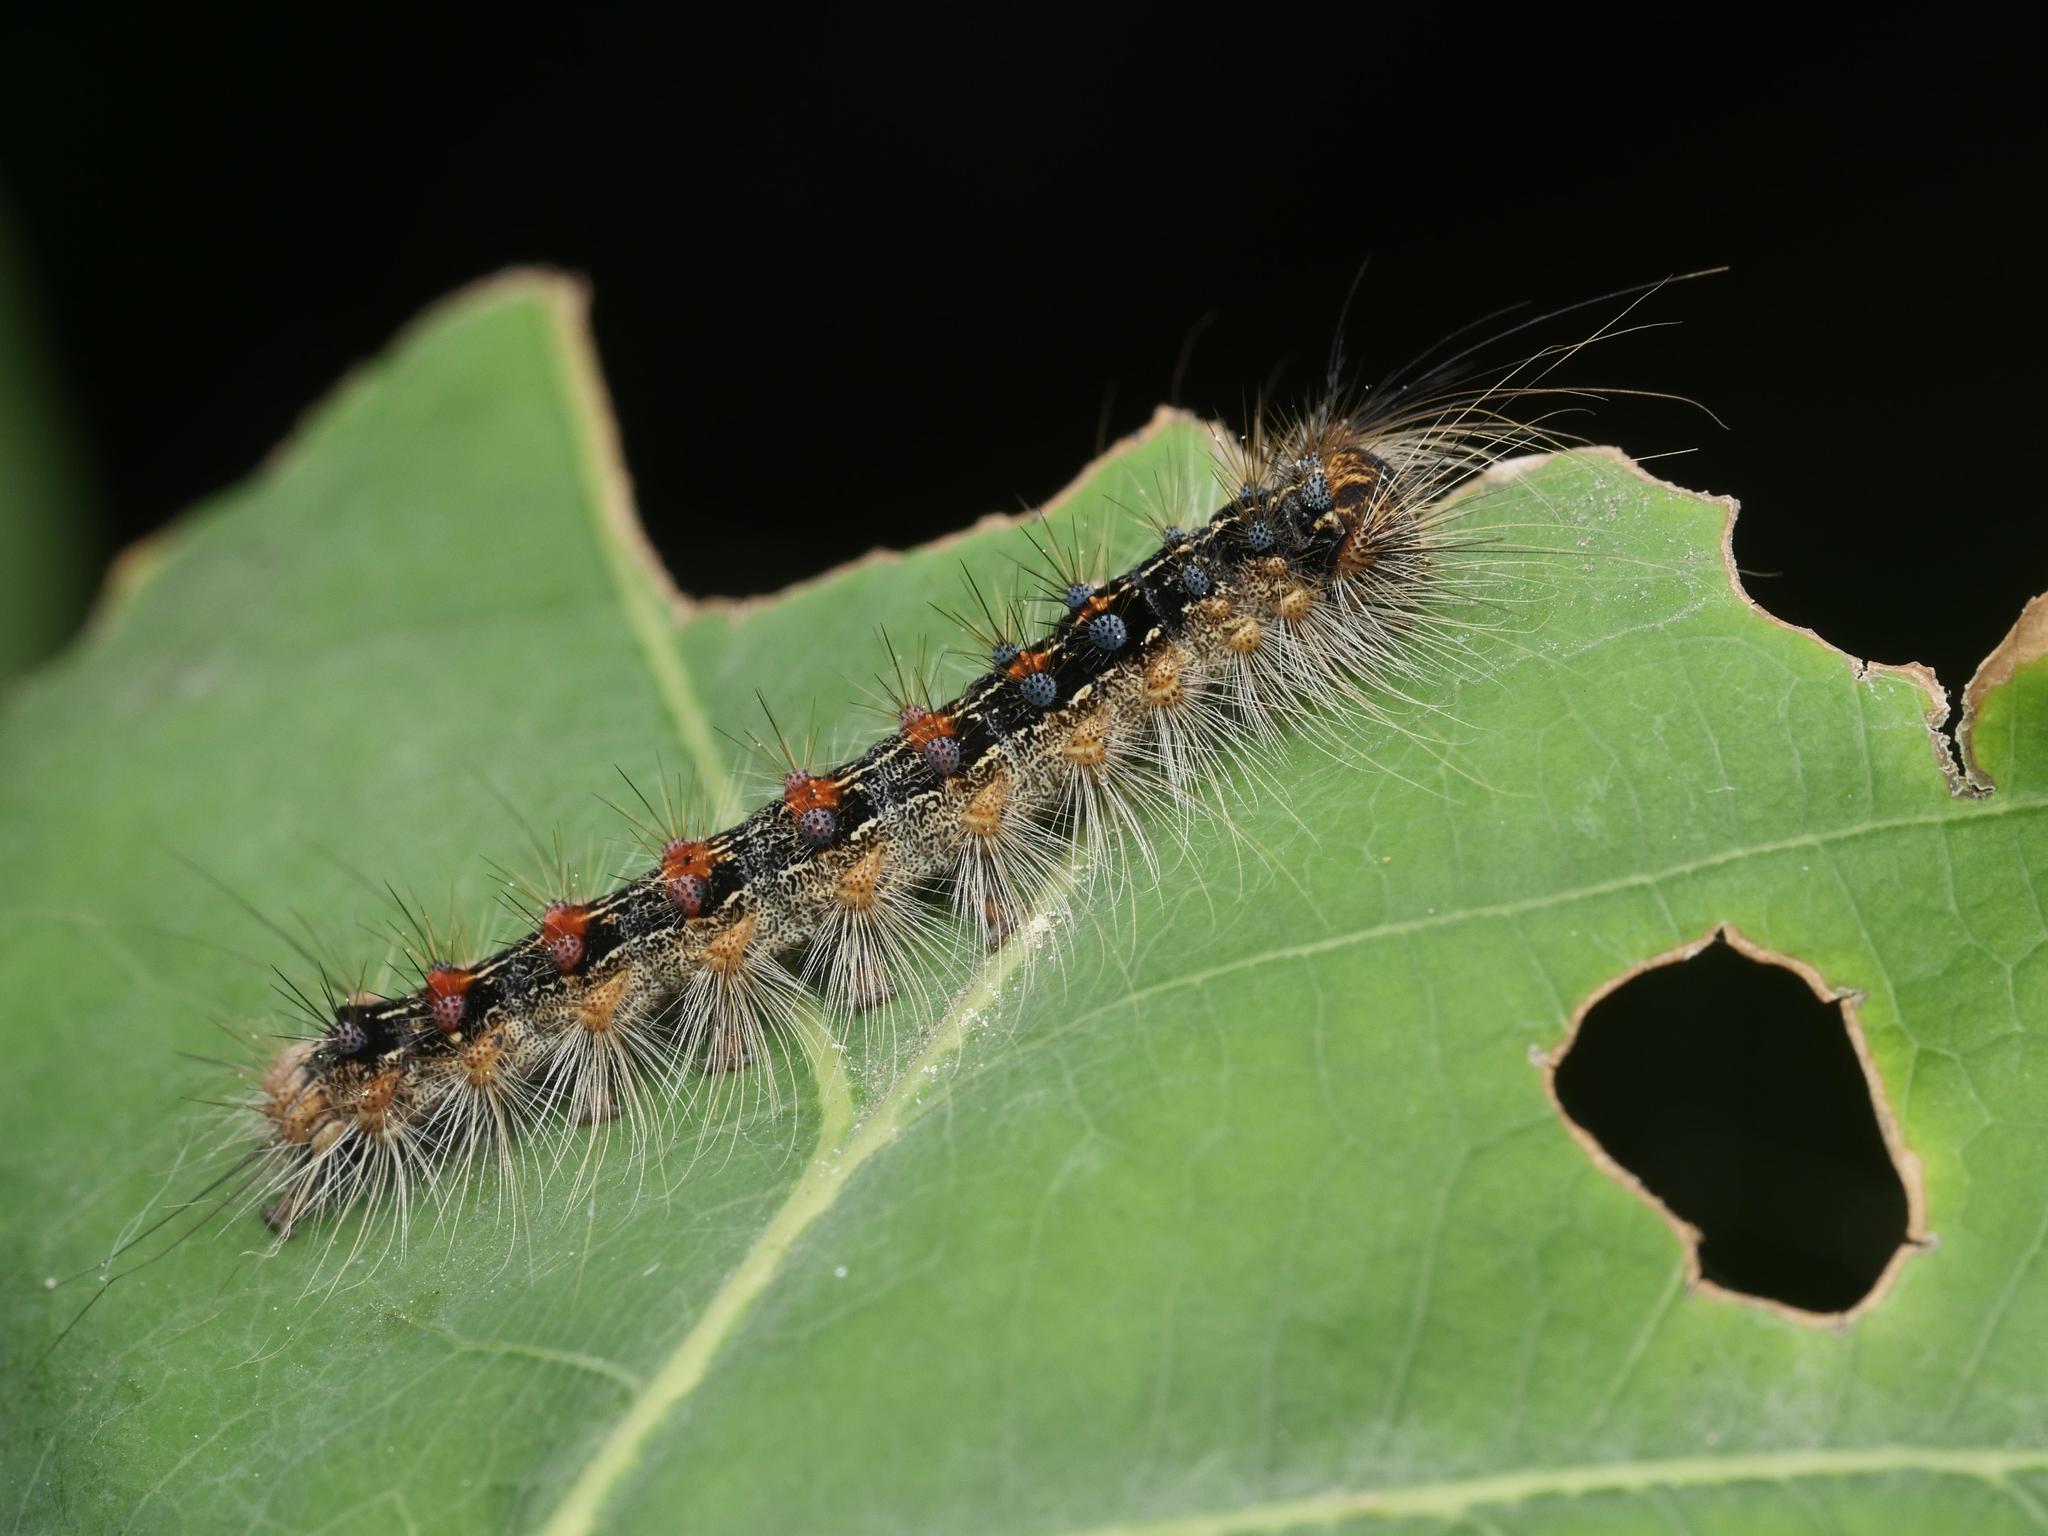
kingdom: Animalia
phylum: Arthropoda
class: Insecta
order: Lepidoptera
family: Erebidae
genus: Lymantria
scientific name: Lymantria dispar
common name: Gypsy moth
